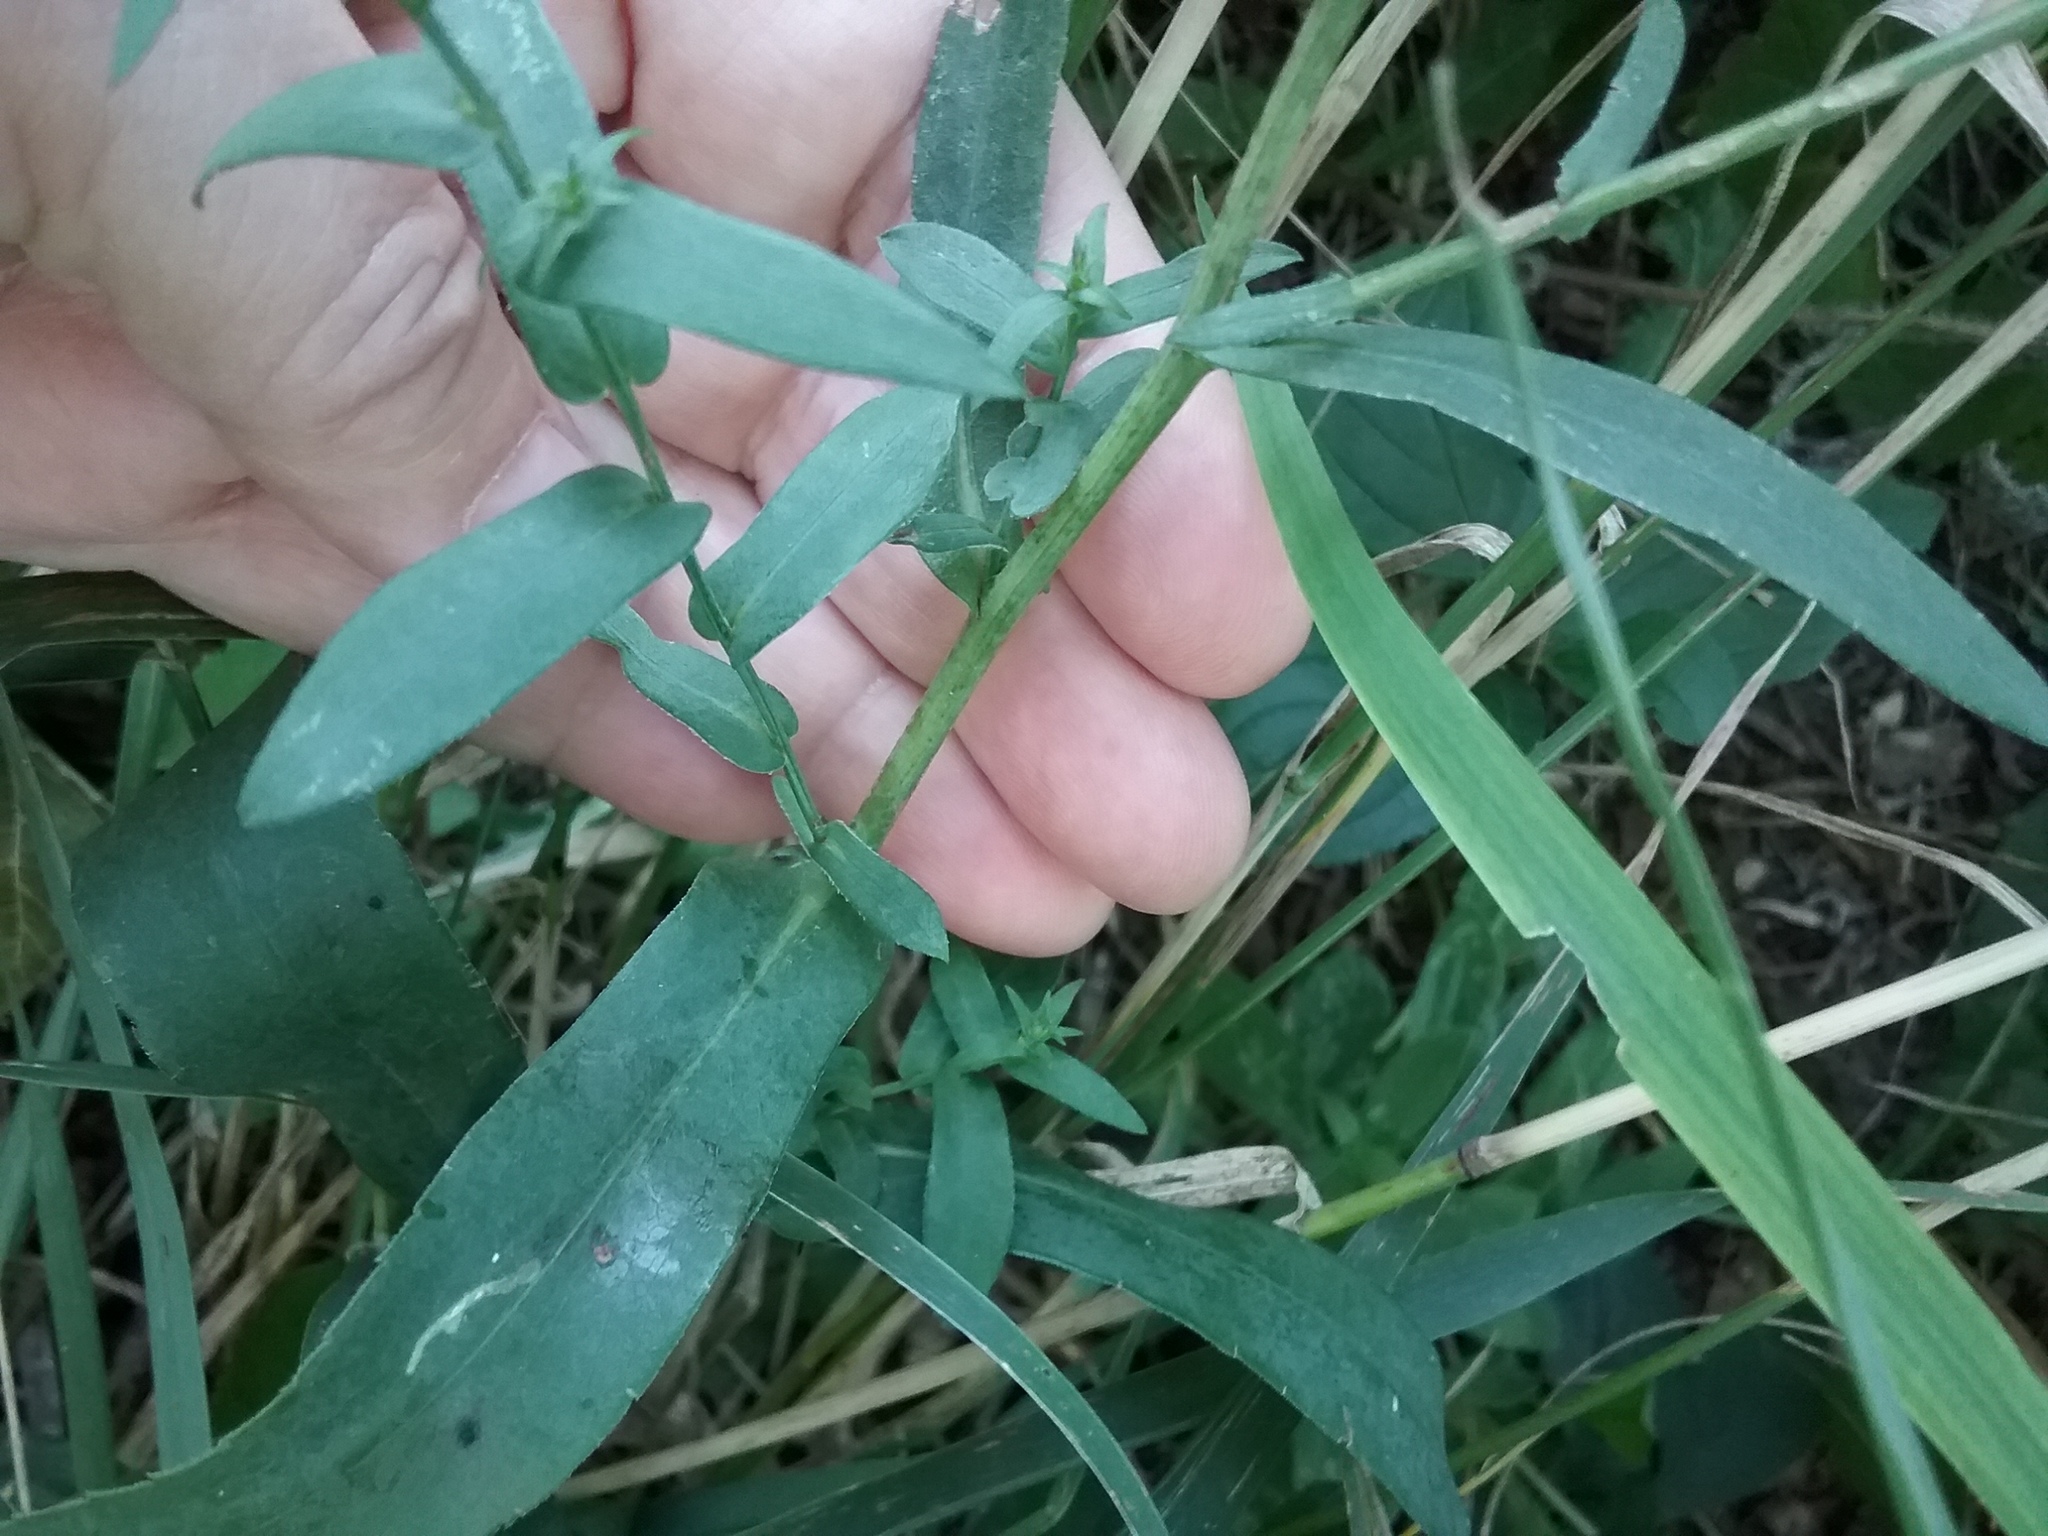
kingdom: Plantae
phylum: Tracheophyta
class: Magnoliopsida
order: Asterales
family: Asteraceae
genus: Symphyotrichum
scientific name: Symphyotrichum firmum
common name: Shining aster
